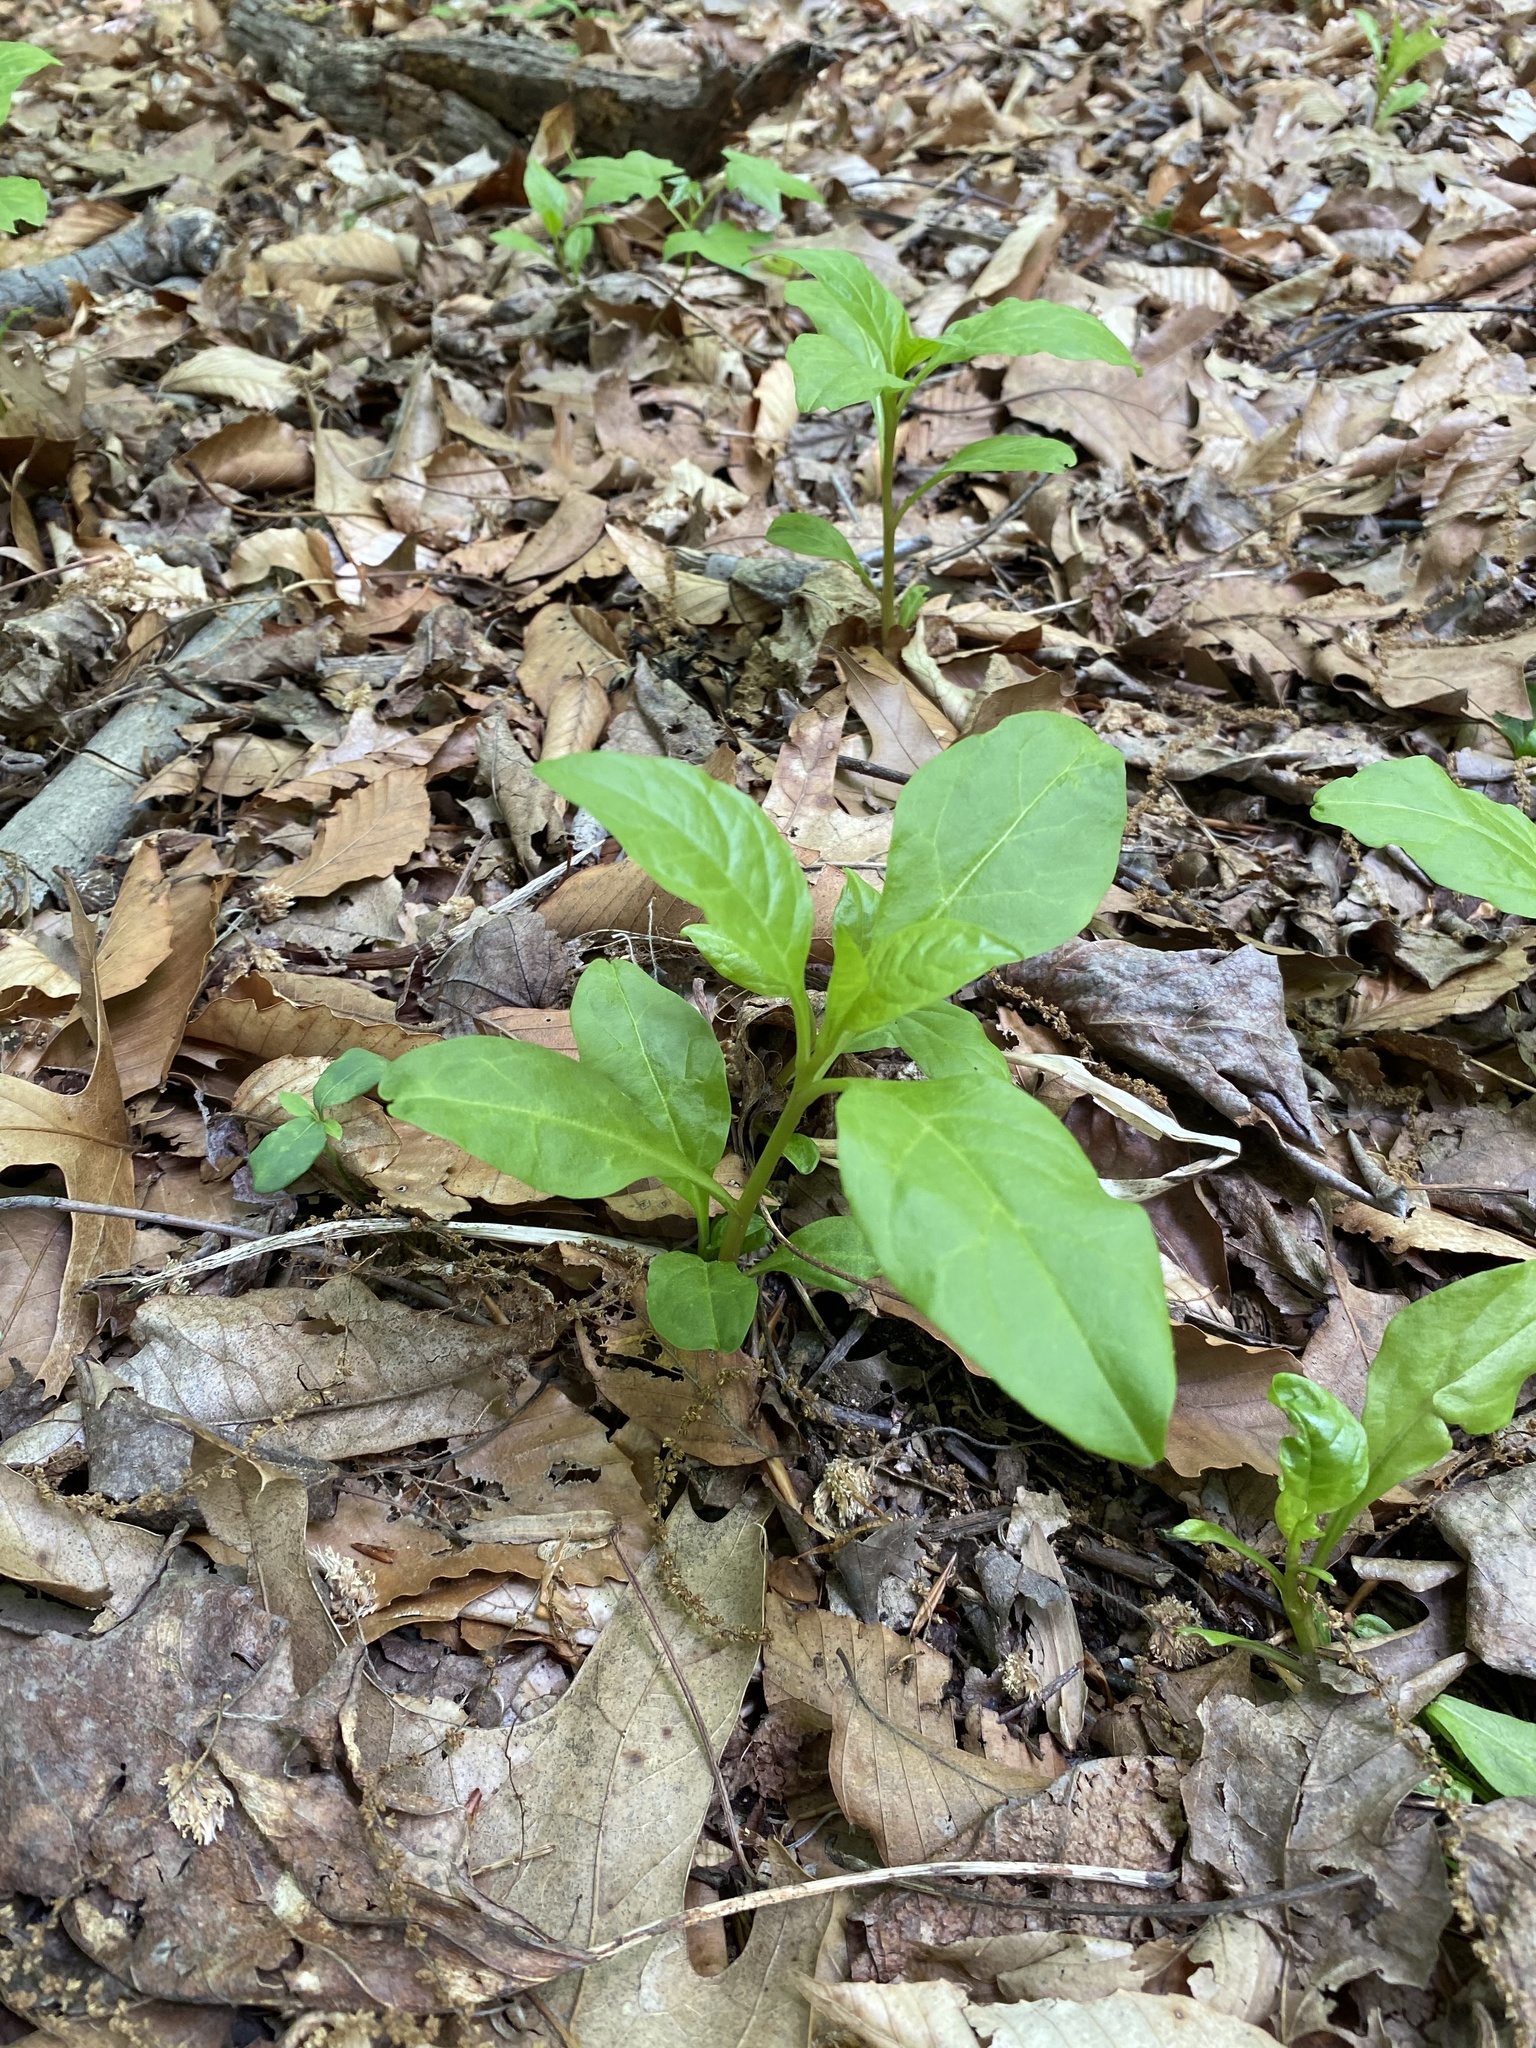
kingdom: Plantae
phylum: Tracheophyta
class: Magnoliopsida
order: Caryophyllales
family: Phytolaccaceae
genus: Phytolacca
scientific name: Phytolacca americana
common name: American pokeweed
